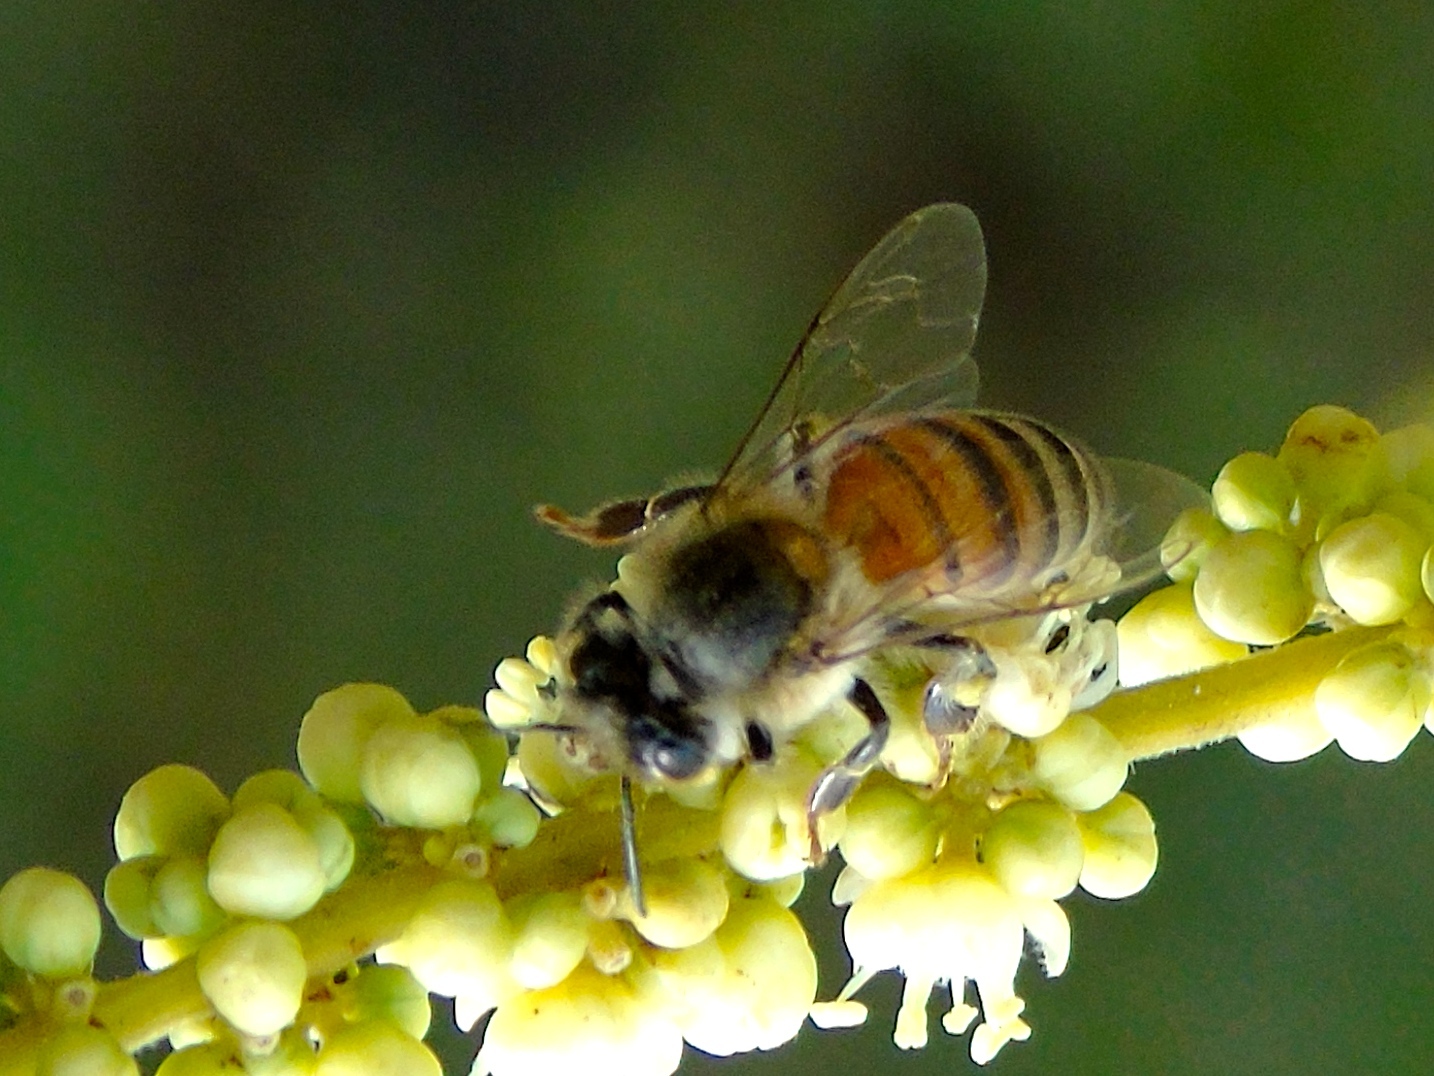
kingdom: Animalia
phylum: Arthropoda
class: Insecta
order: Hymenoptera
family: Apidae
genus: Apis
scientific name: Apis mellifera
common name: Honey bee
